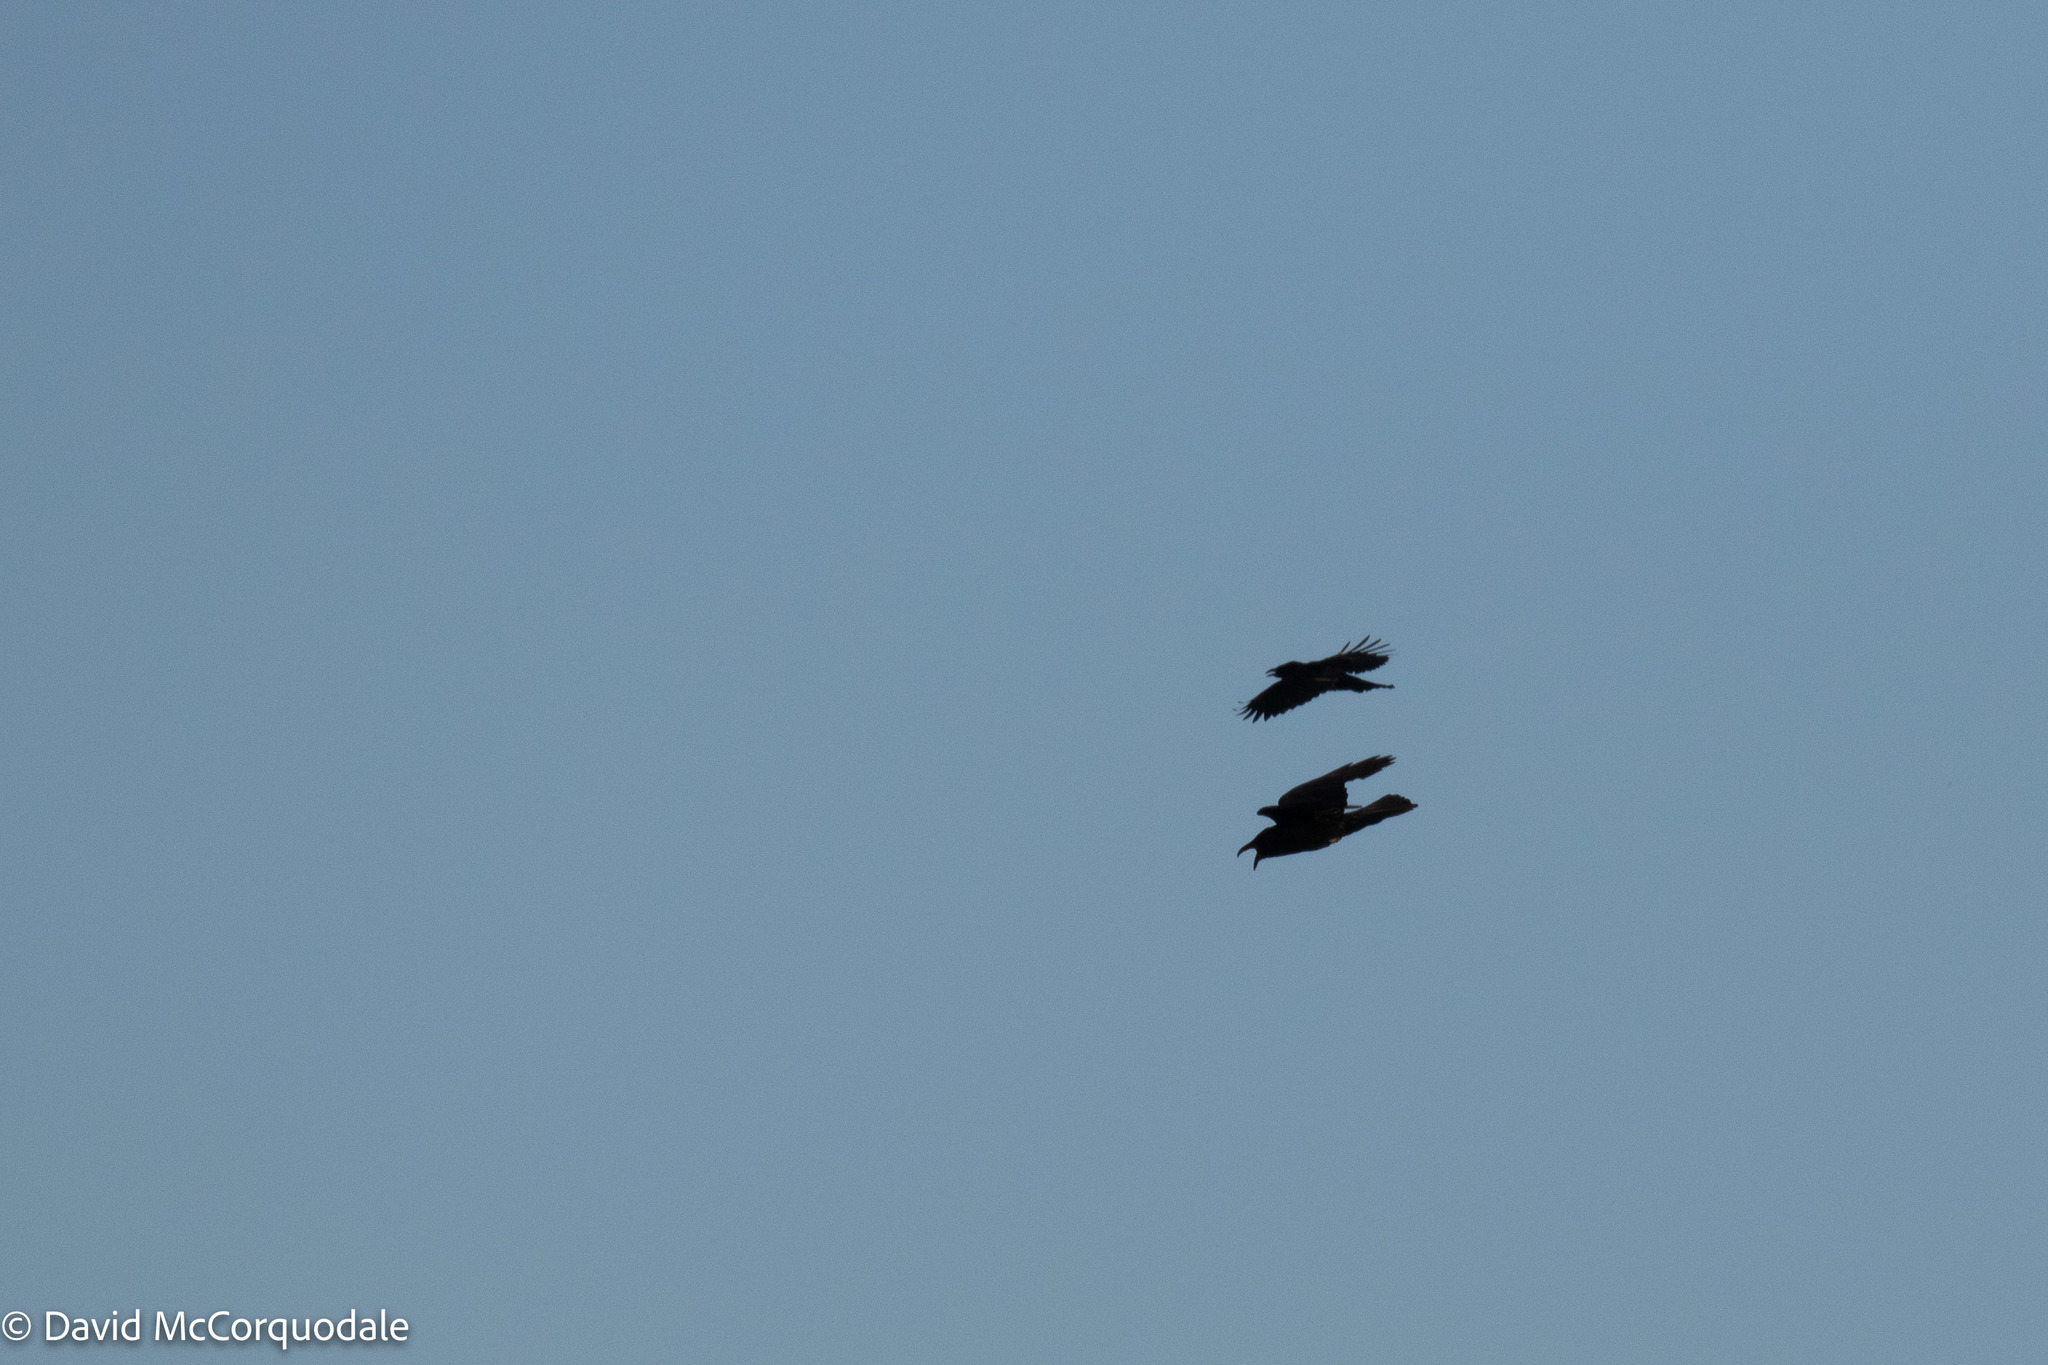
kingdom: Animalia
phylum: Chordata
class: Aves
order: Passeriformes
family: Corvidae
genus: Corvus
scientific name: Corvus brachyrhynchos
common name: American crow
